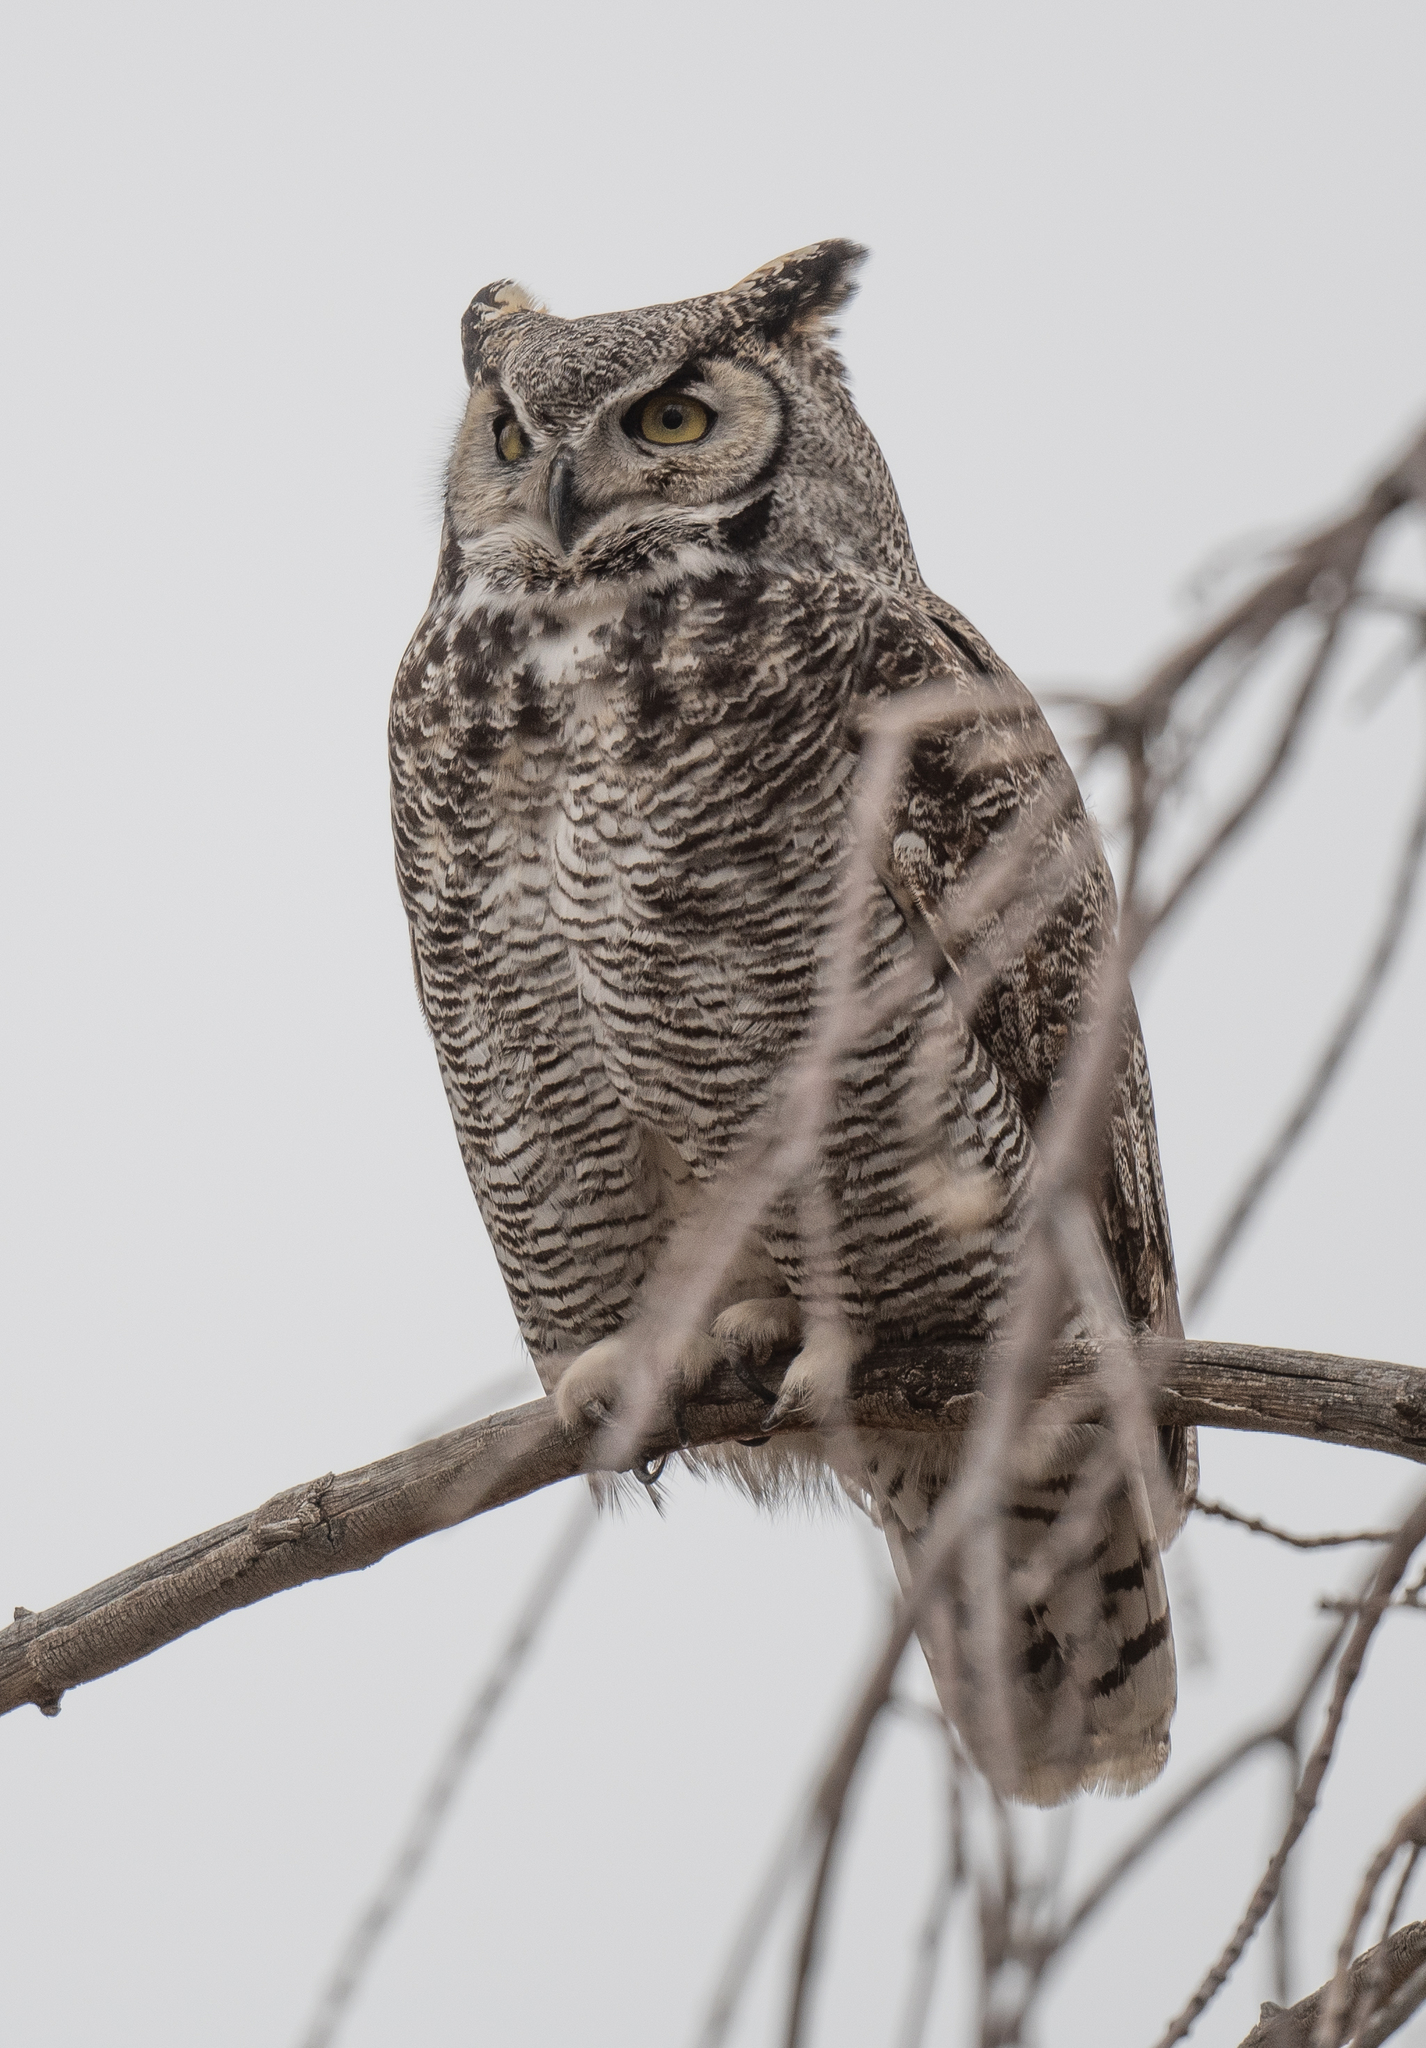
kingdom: Animalia
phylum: Chordata
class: Aves
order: Strigiformes
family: Strigidae
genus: Bubo
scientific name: Bubo virginianus
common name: Great horned owl
